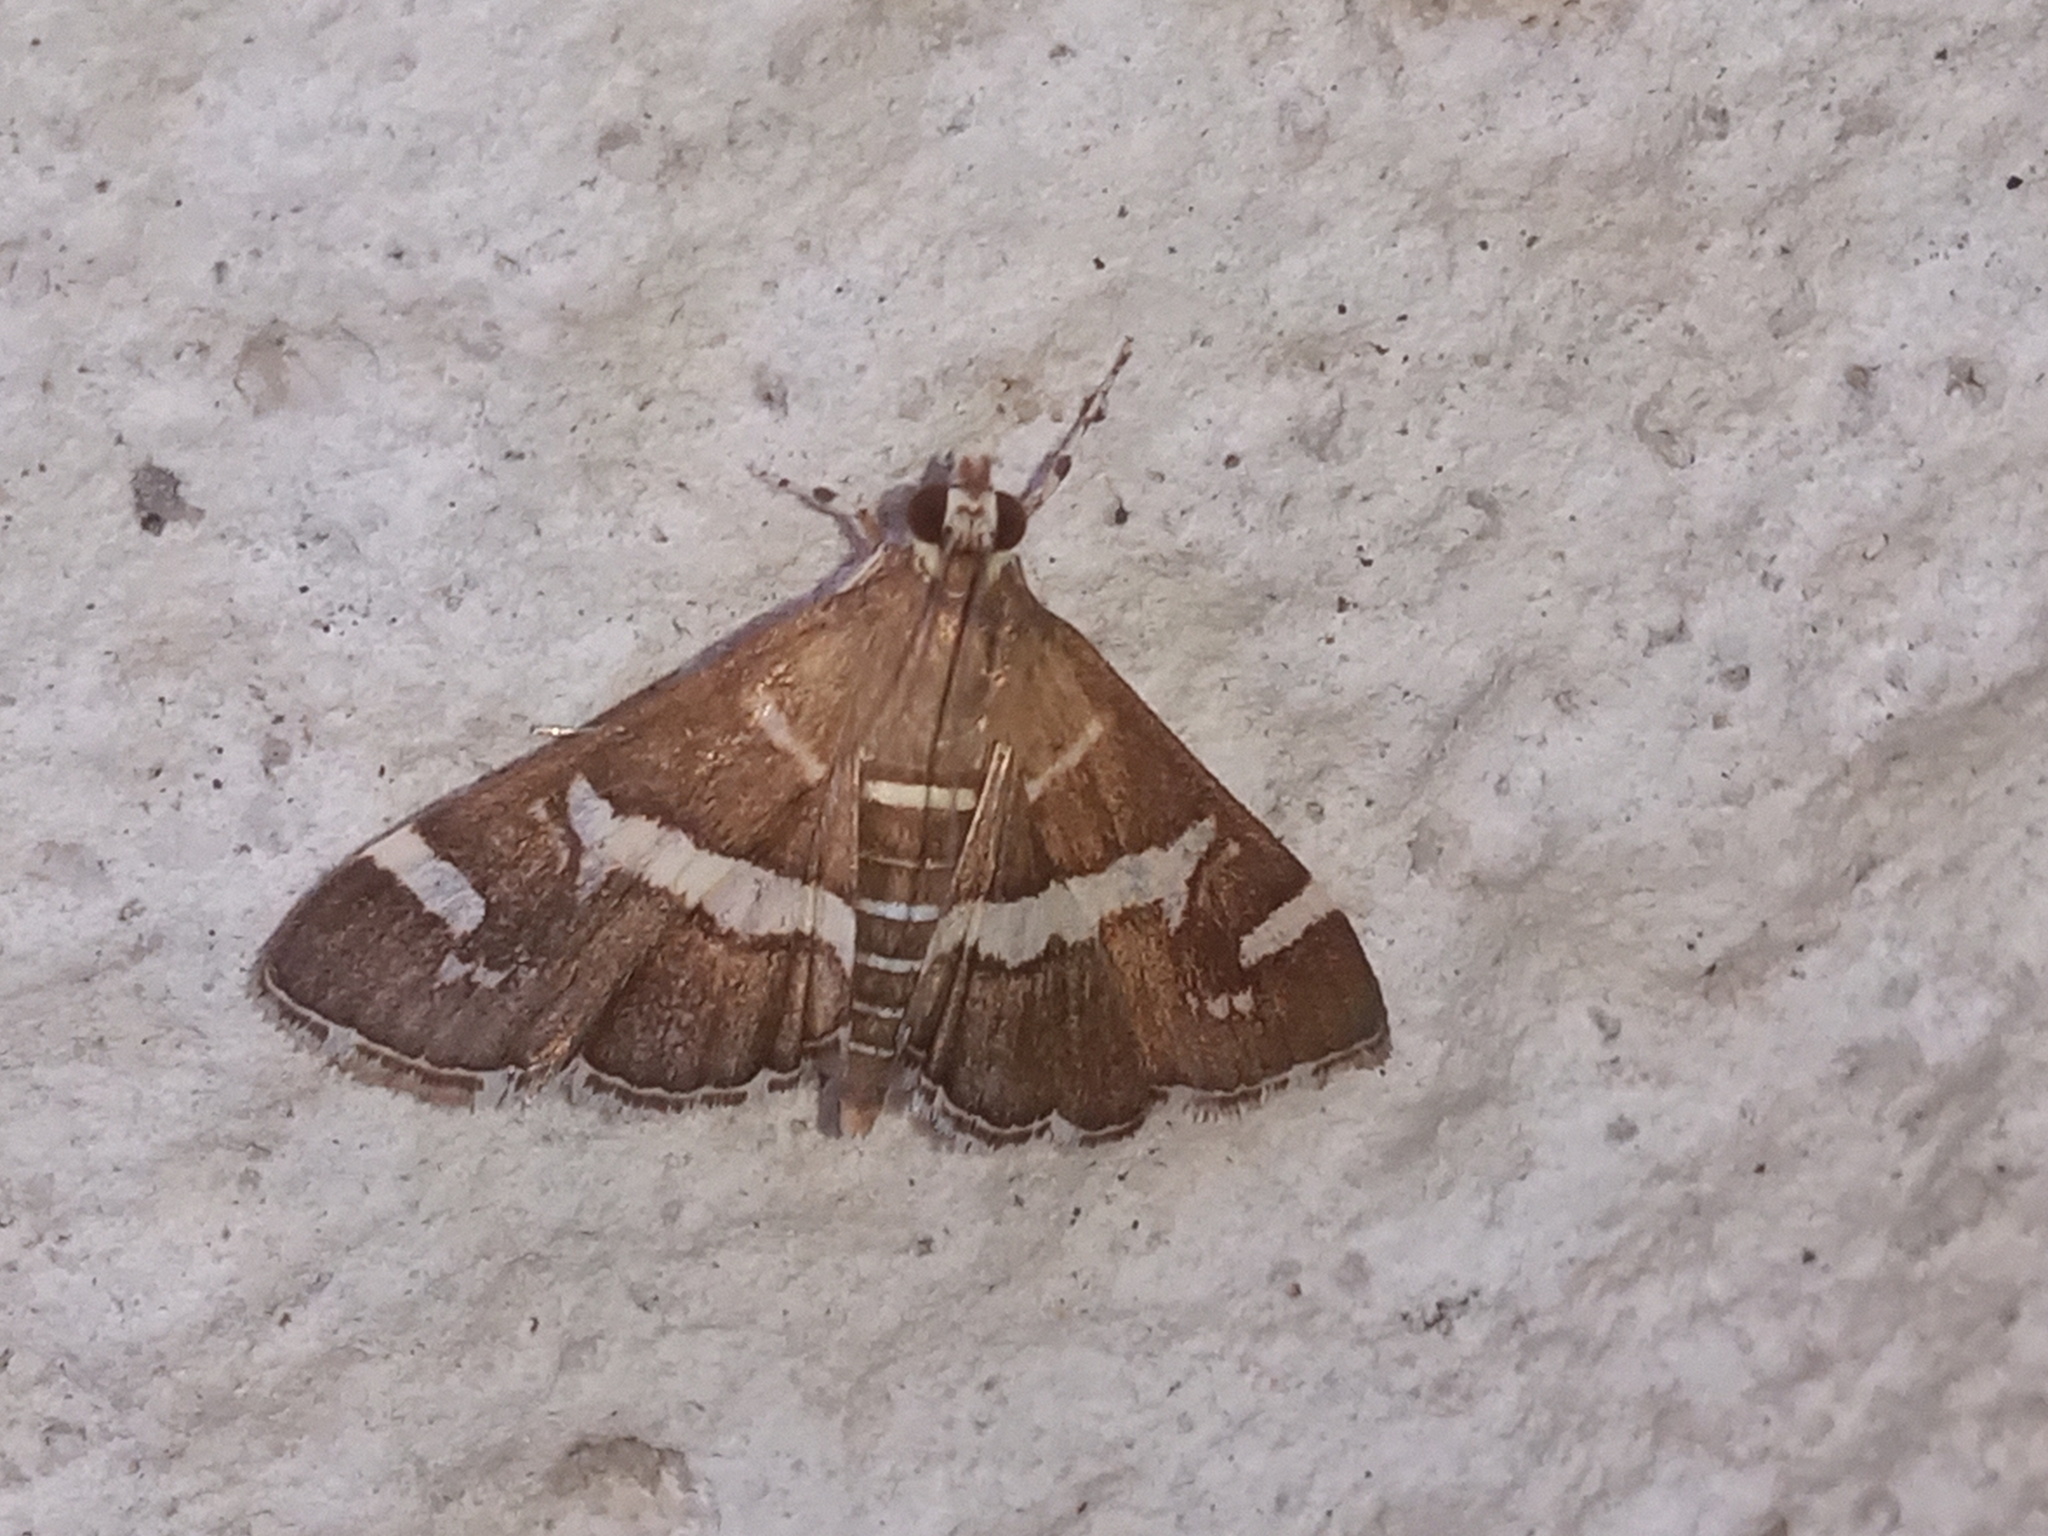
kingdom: Animalia
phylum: Arthropoda
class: Insecta
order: Lepidoptera
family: Crambidae
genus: Spoladea
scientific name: Spoladea recurvalis
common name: Beet webworm moth
